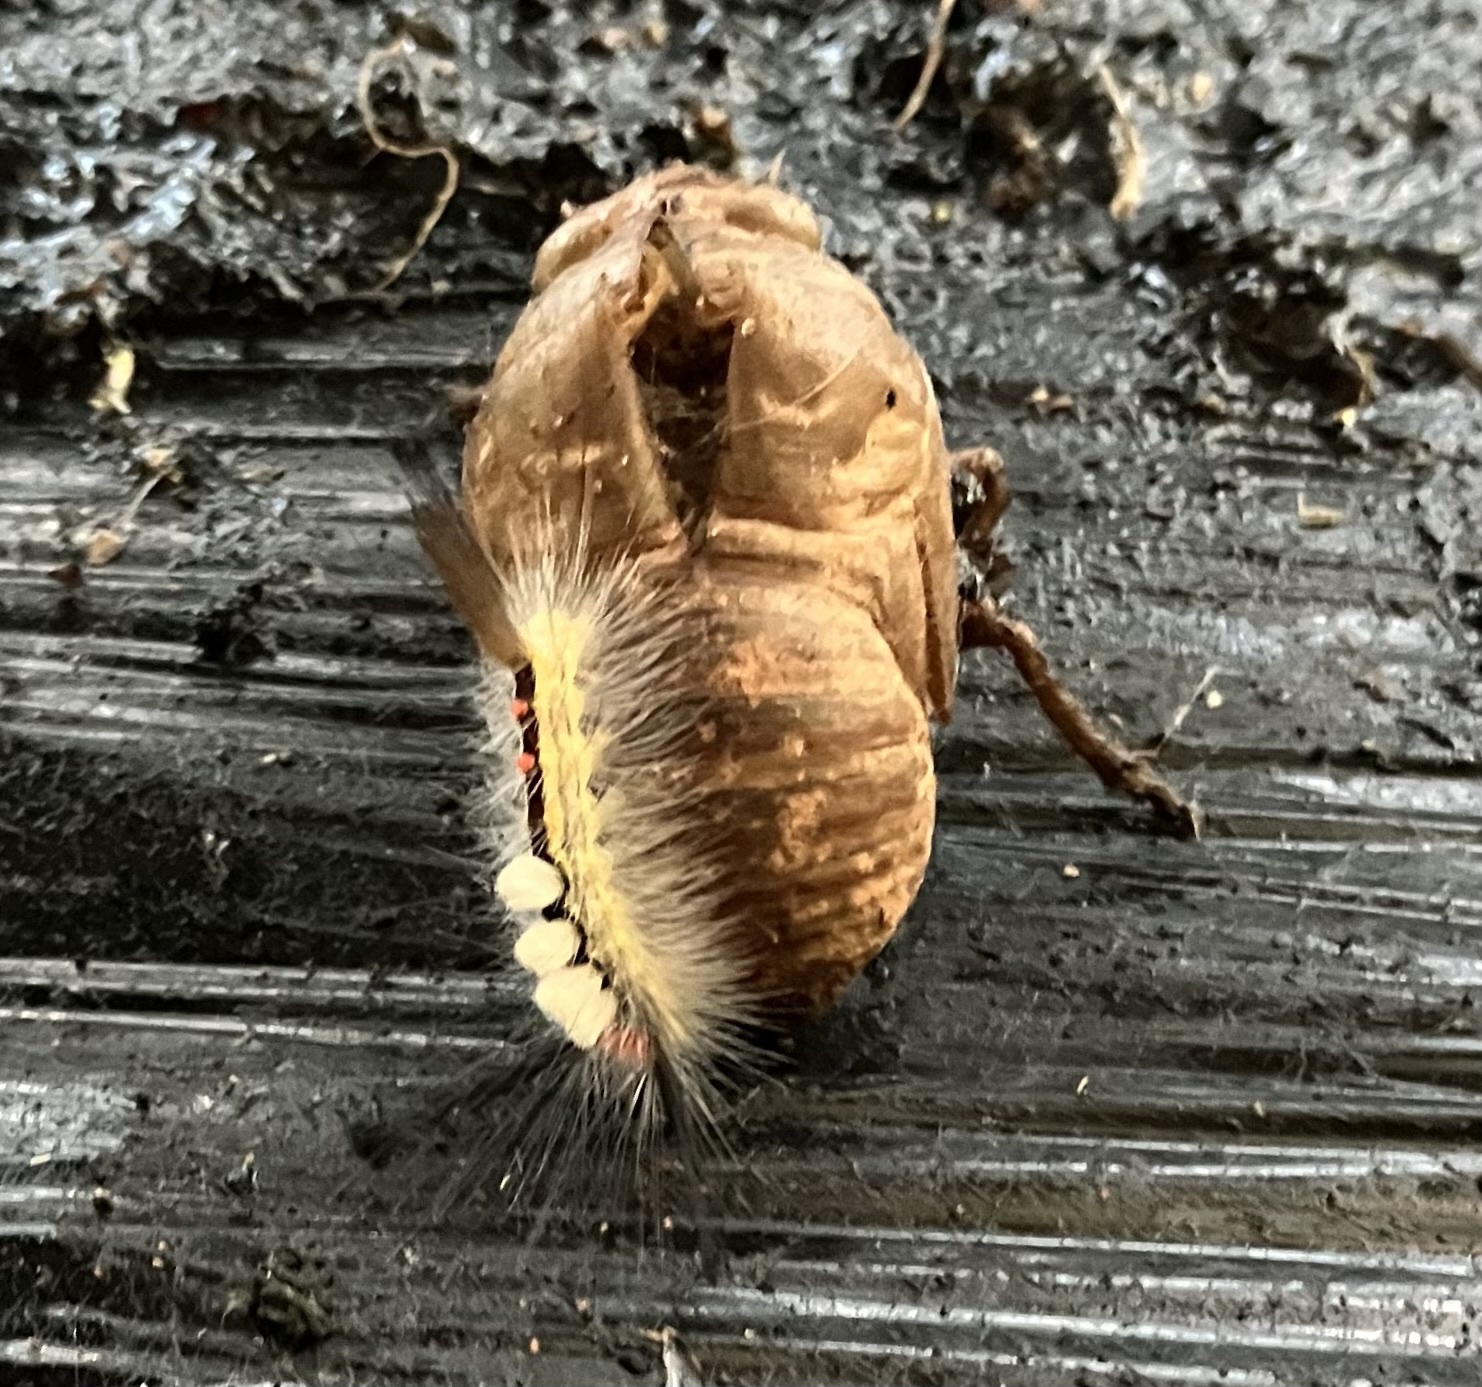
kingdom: Animalia
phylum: Arthropoda
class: Insecta
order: Lepidoptera
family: Erebidae
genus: Orgyia
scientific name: Orgyia leucostigma
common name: White-marked tussock moth
